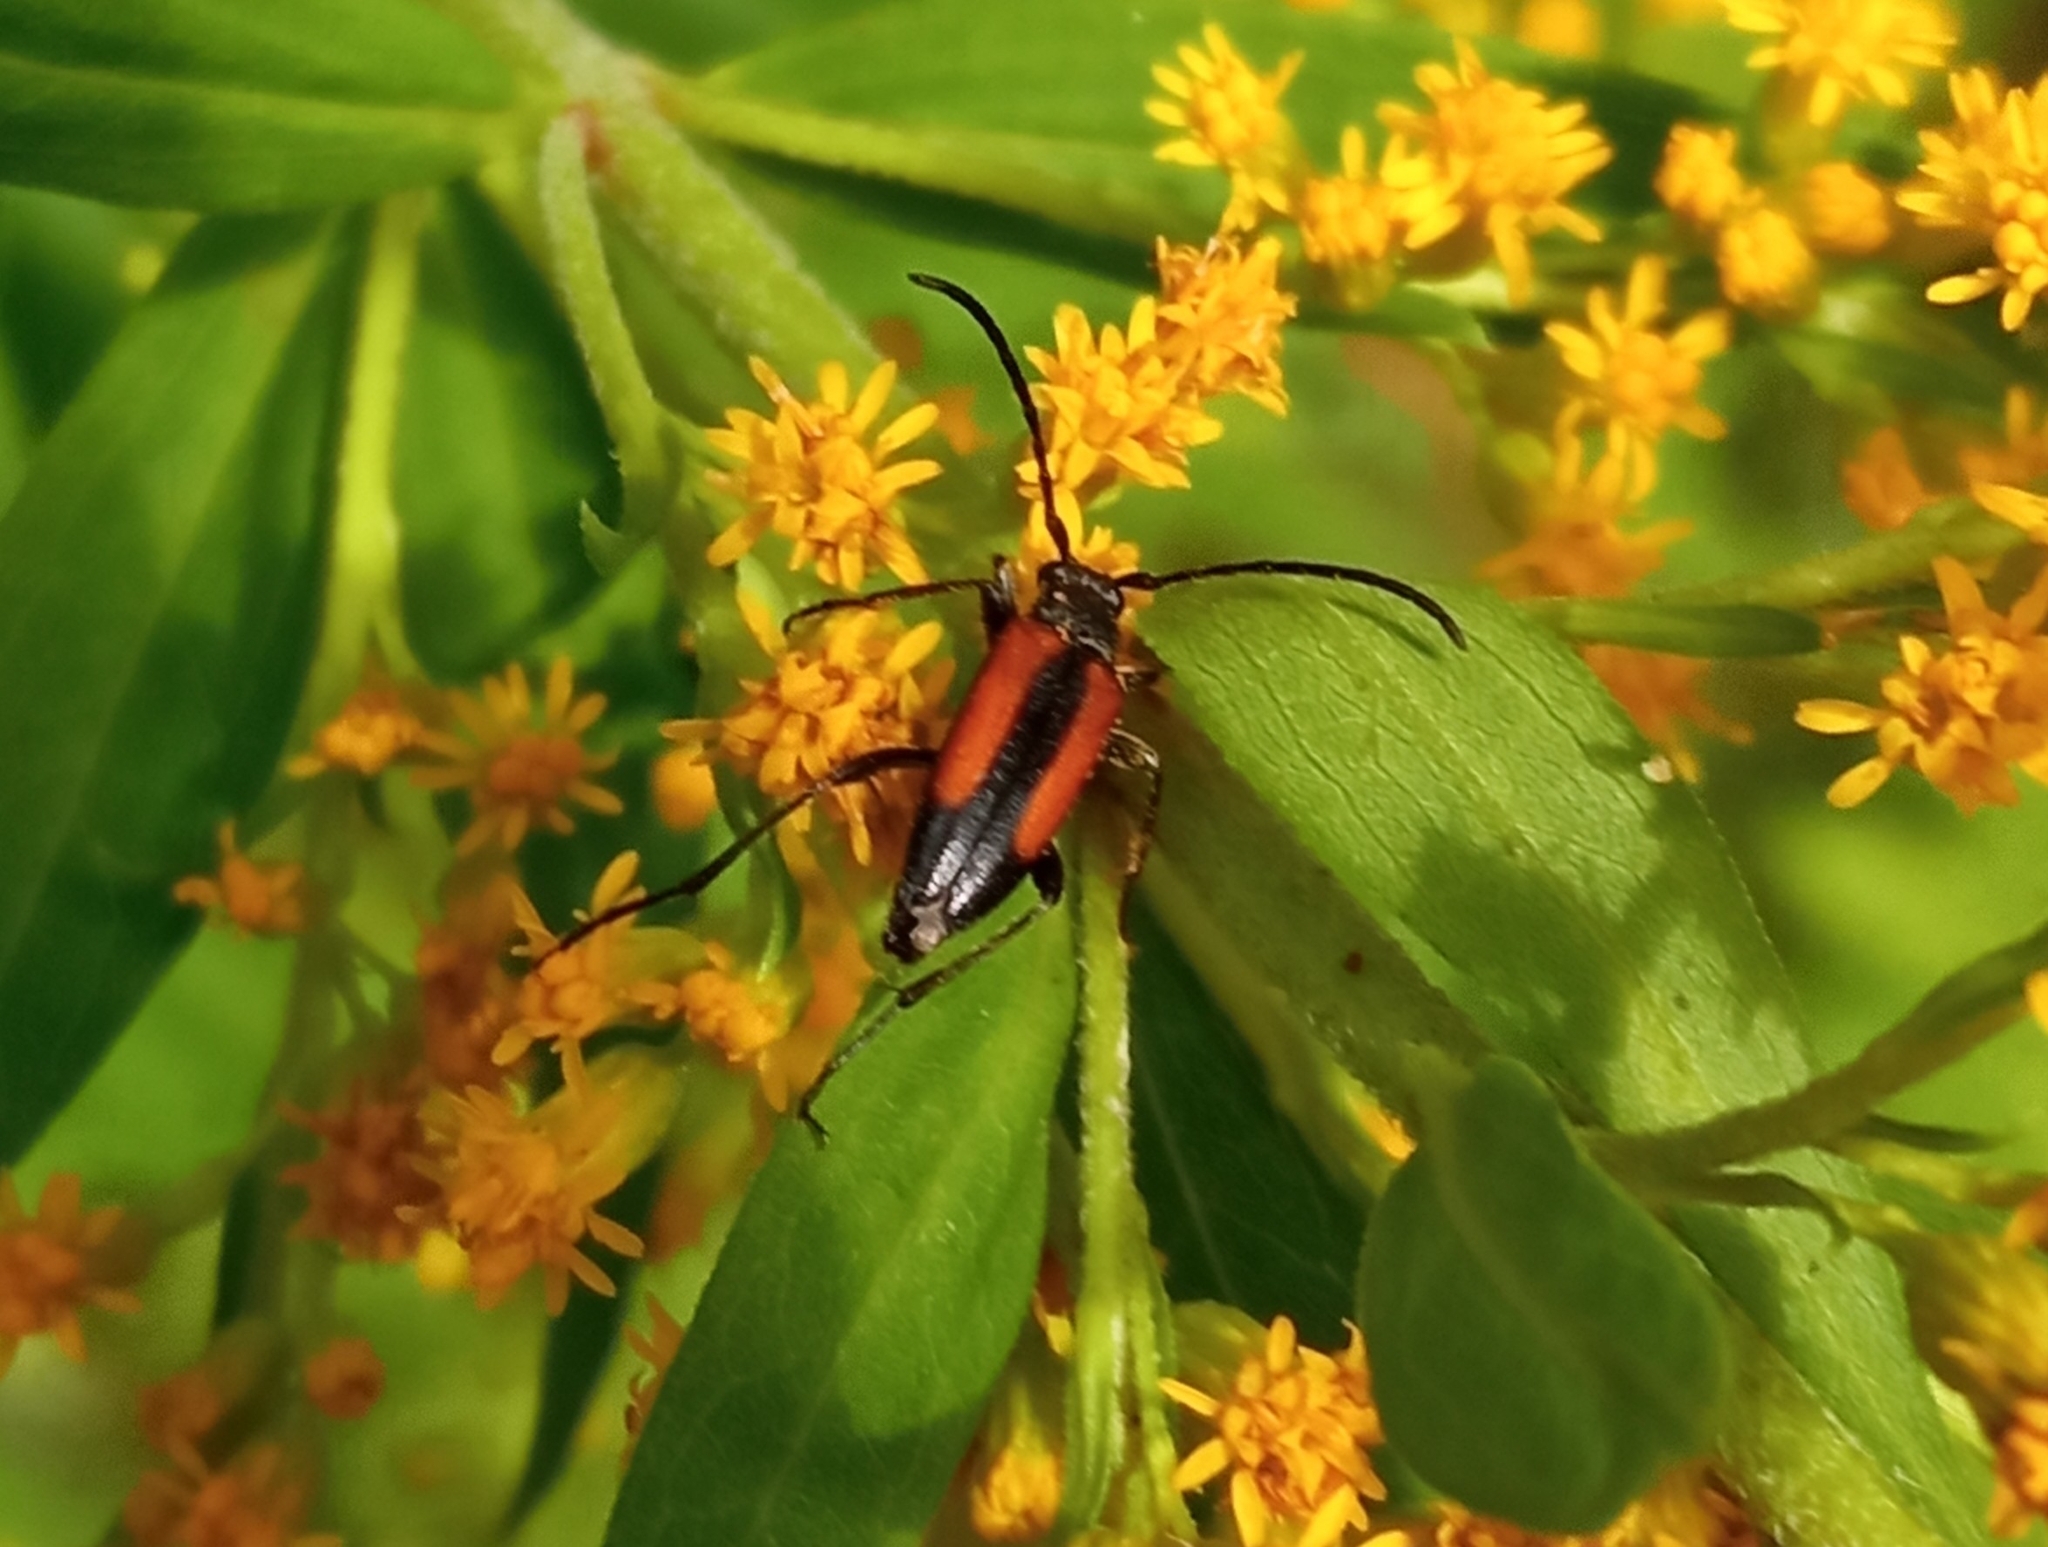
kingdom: Animalia
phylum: Arthropoda
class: Insecta
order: Coleoptera
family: Cerambycidae
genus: Stenurella
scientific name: Stenurella melanura
